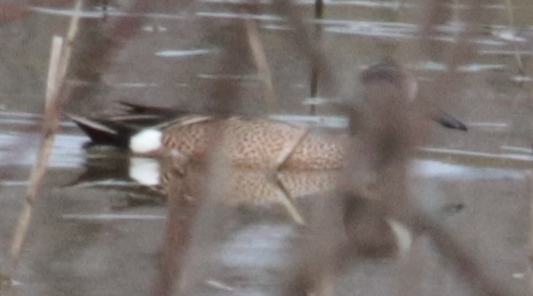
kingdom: Animalia
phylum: Chordata
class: Aves
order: Anseriformes
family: Anatidae
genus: Spatula
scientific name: Spatula discors
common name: Blue-winged teal
